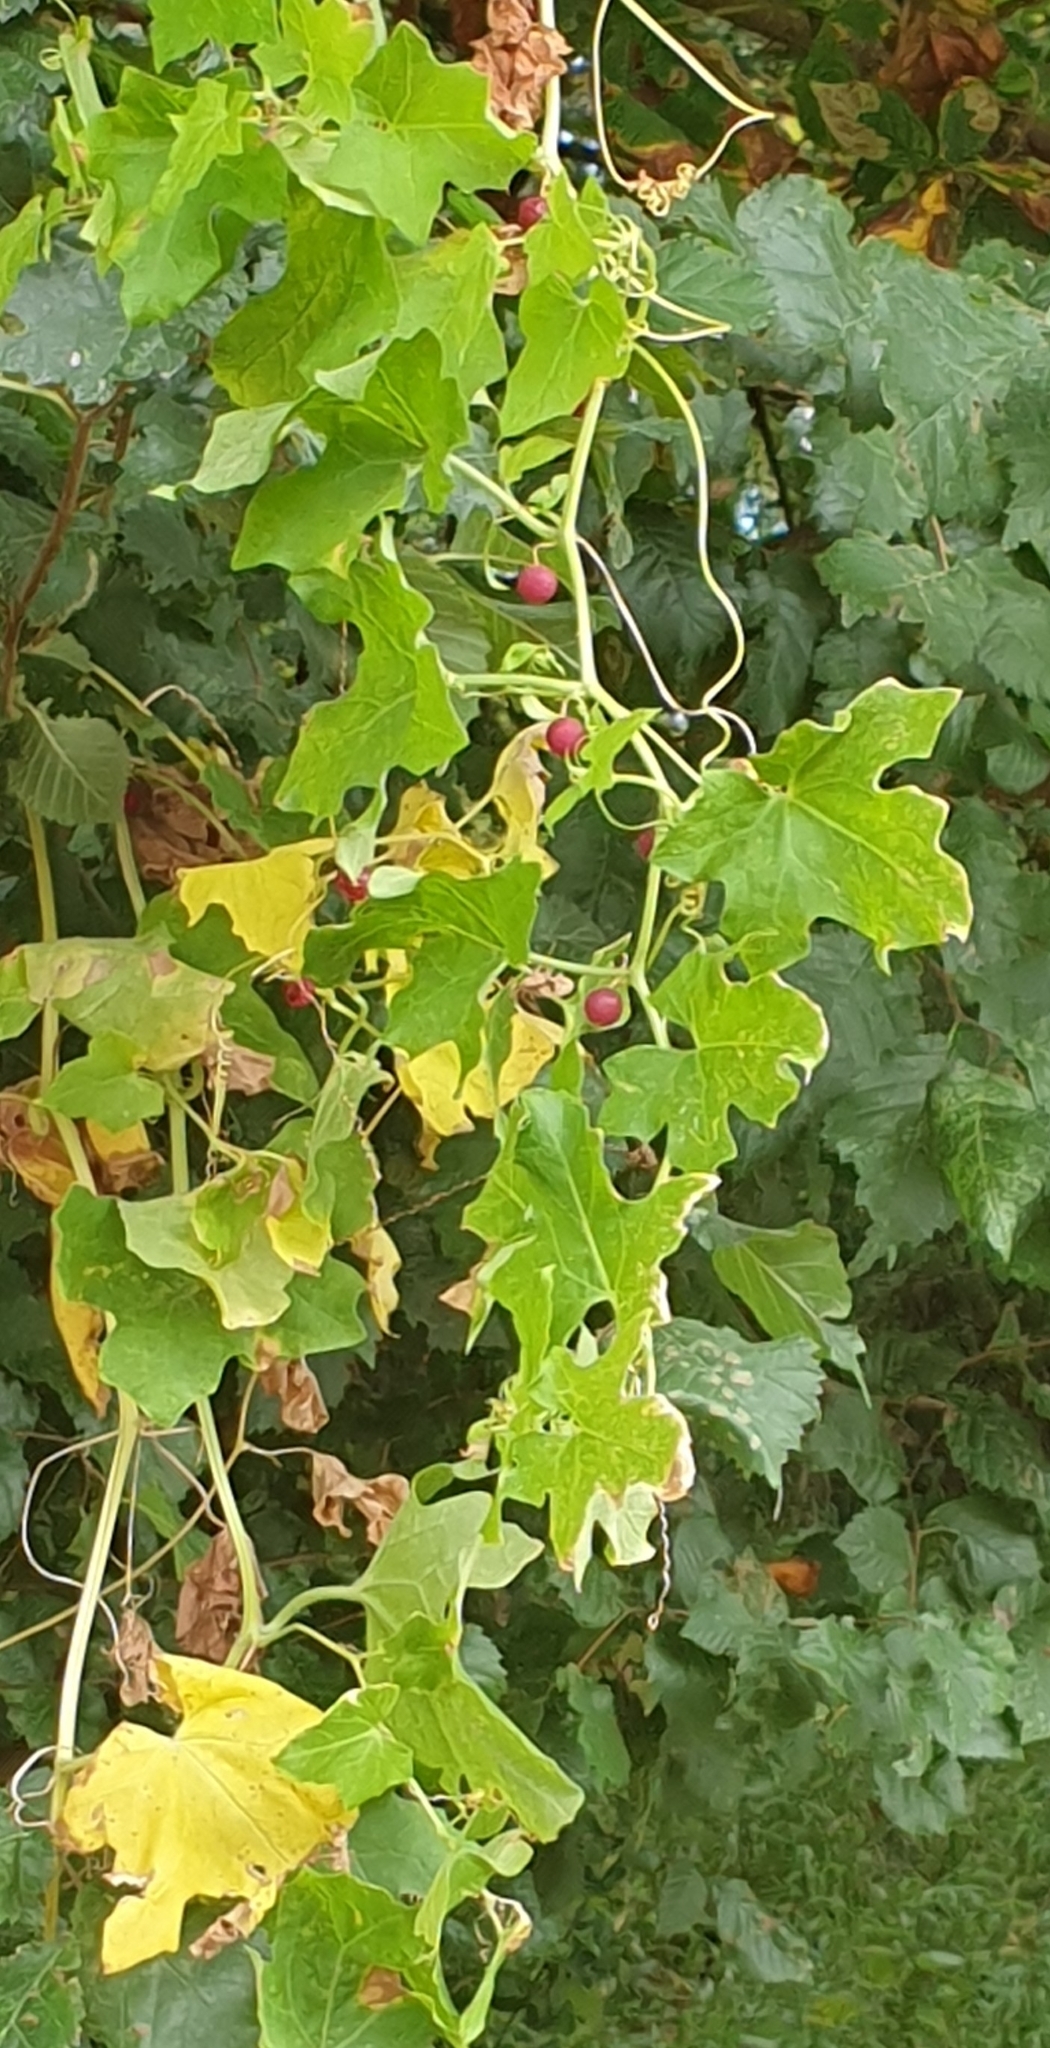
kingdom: Plantae
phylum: Tracheophyta
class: Magnoliopsida
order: Cucurbitales
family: Cucurbitaceae
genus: Bryonia
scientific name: Bryonia cretica
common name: Cretan bryony
